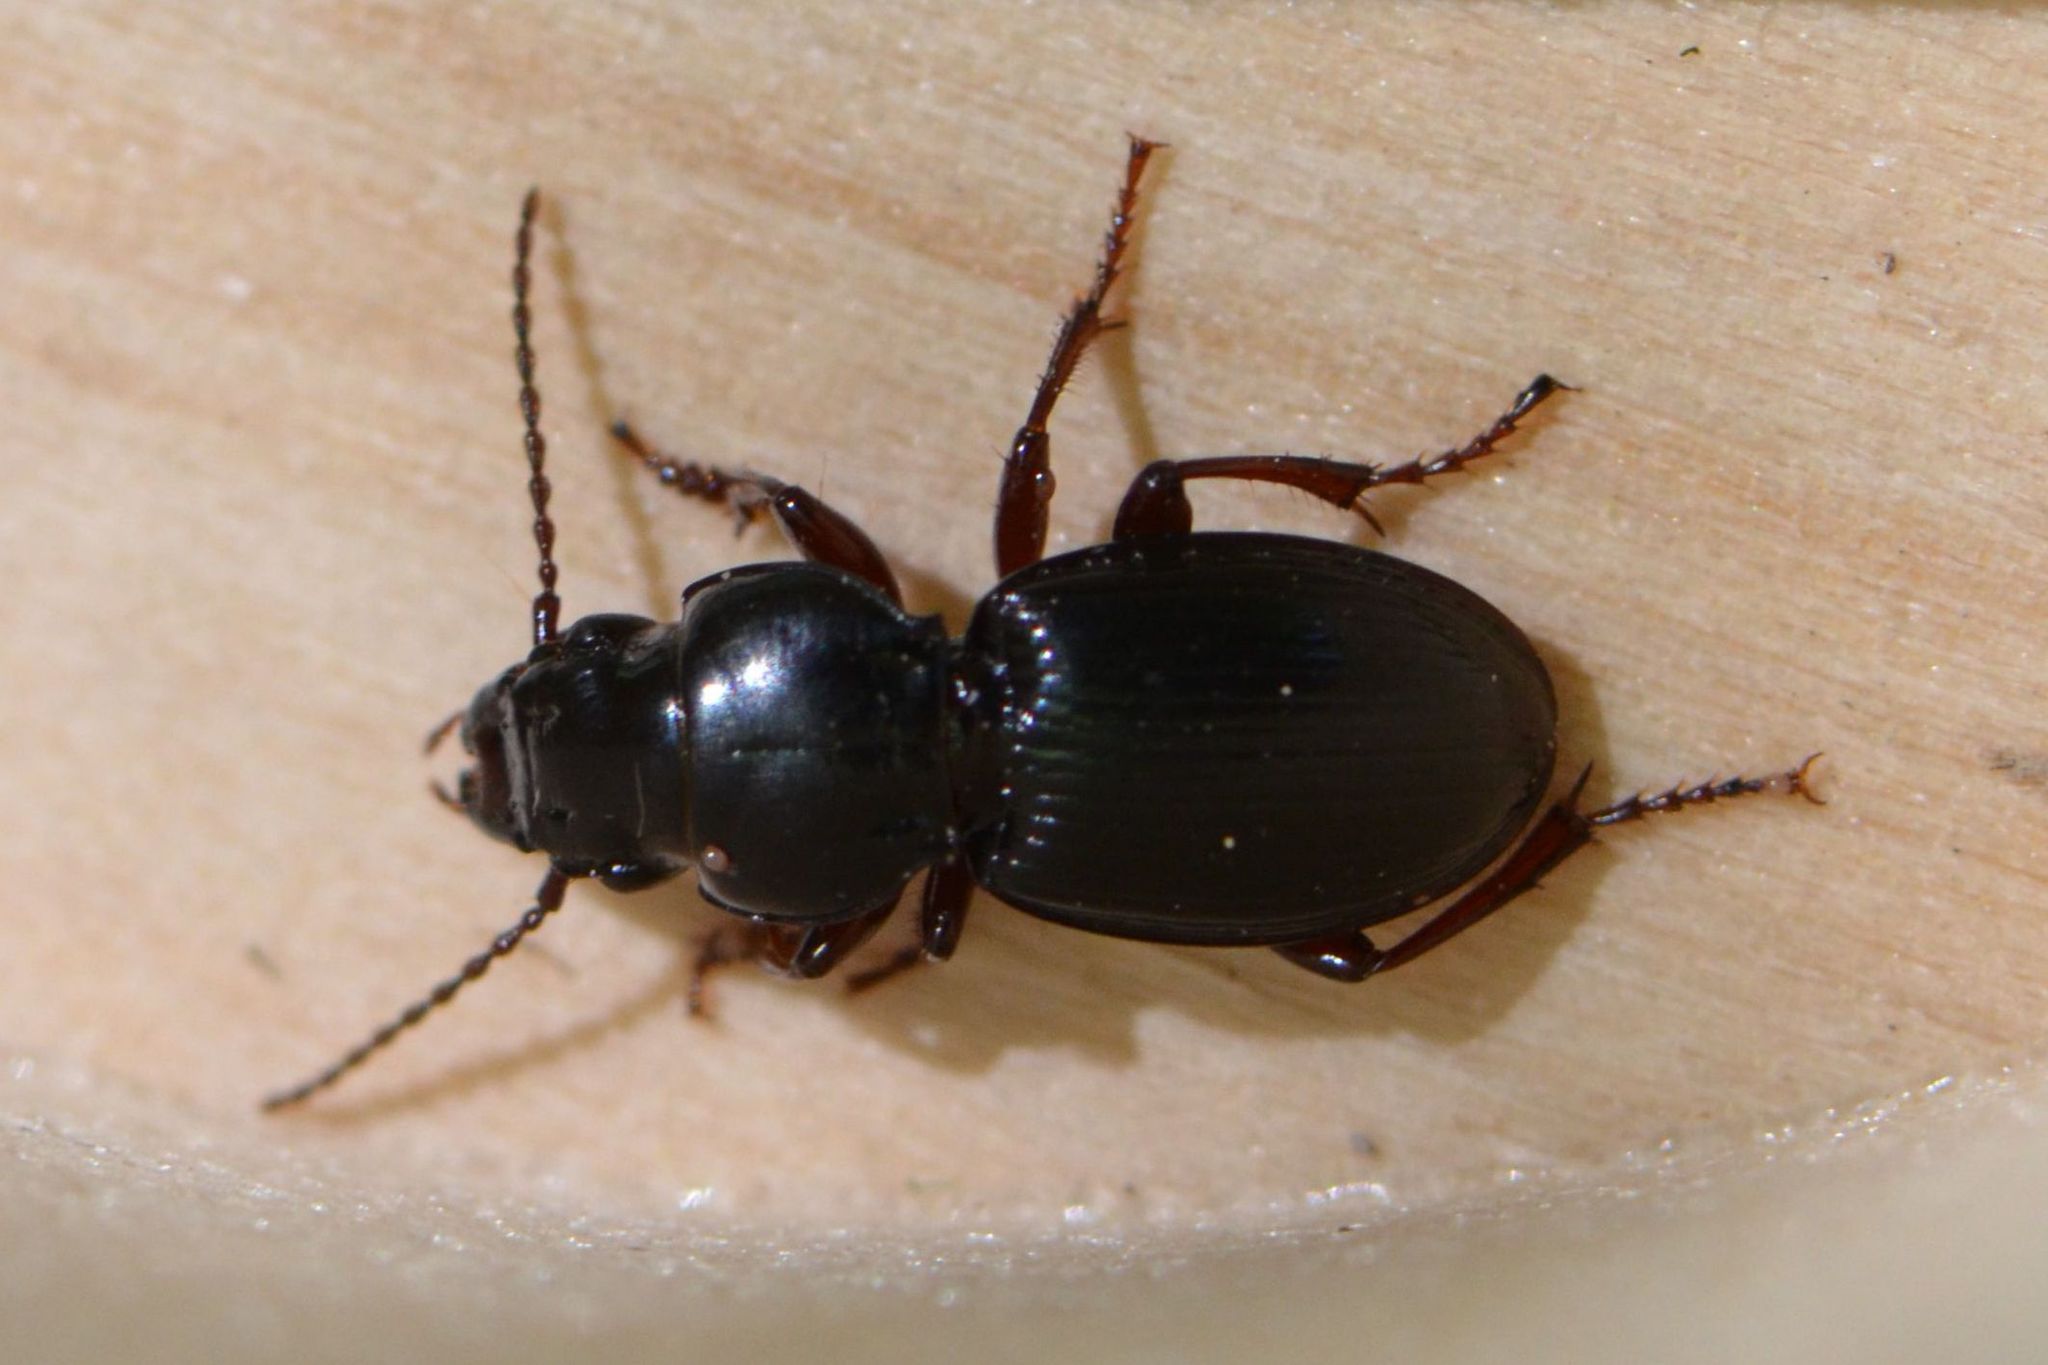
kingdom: Animalia
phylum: Arthropoda
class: Insecta
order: Coleoptera
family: Carabidae
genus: Molops
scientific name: Molops piceus
